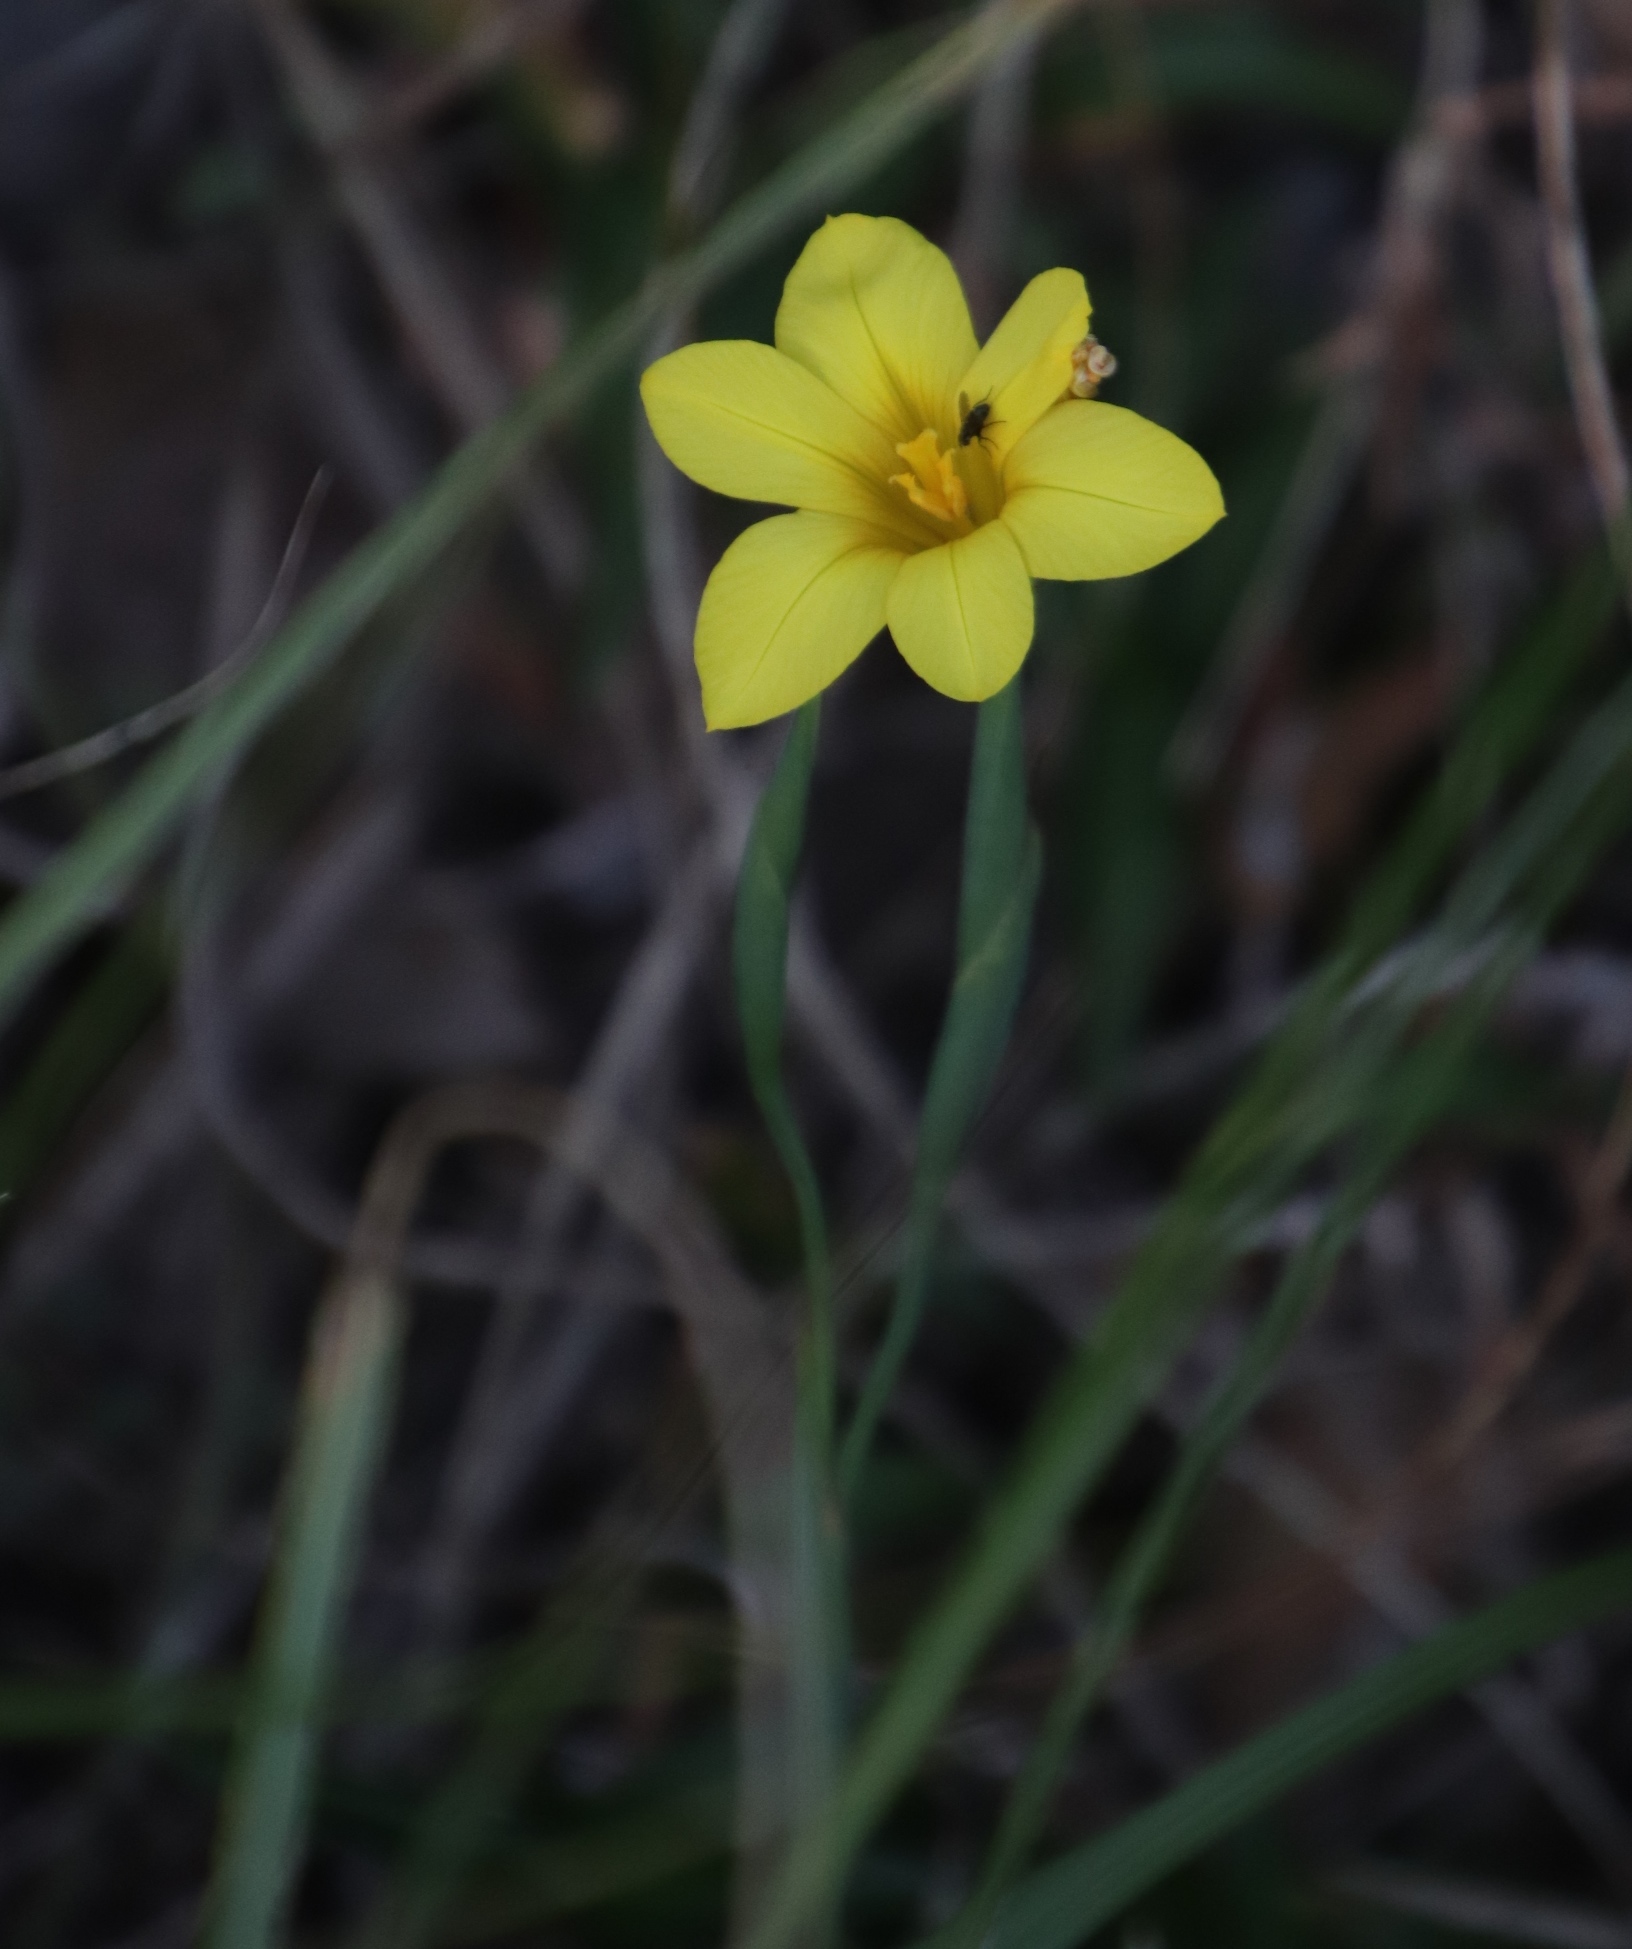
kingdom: Plantae
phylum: Tracheophyta
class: Liliopsida
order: Asparagales
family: Iridaceae
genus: Moraea
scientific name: Moraea ochroleuca
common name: Red tulp
